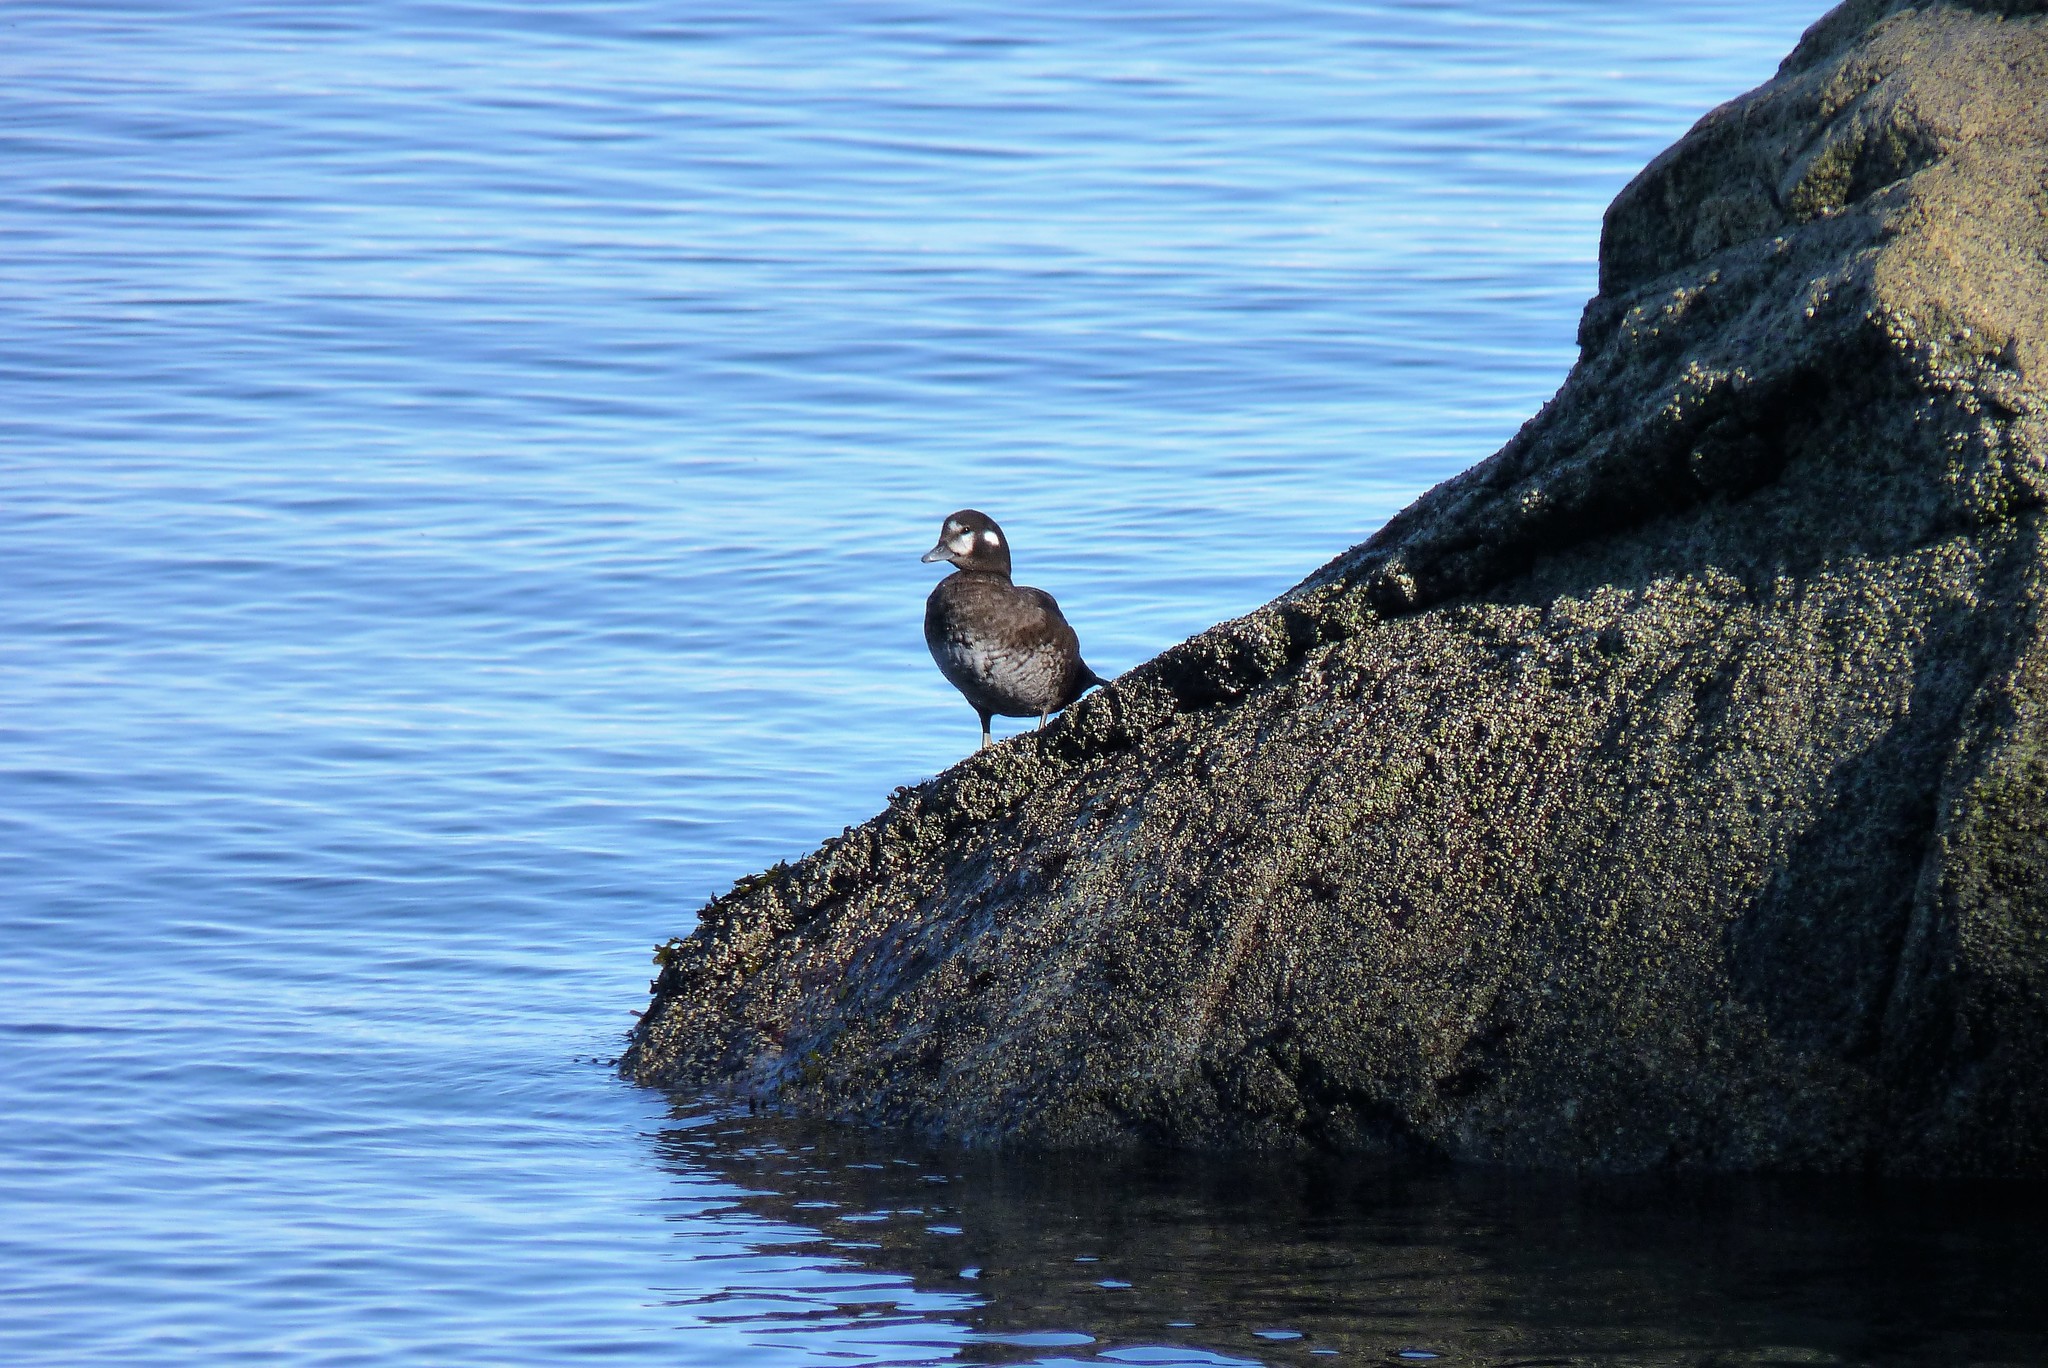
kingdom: Animalia
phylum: Chordata
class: Aves
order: Anseriformes
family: Anatidae
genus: Histrionicus
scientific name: Histrionicus histrionicus
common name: Harlequin duck
